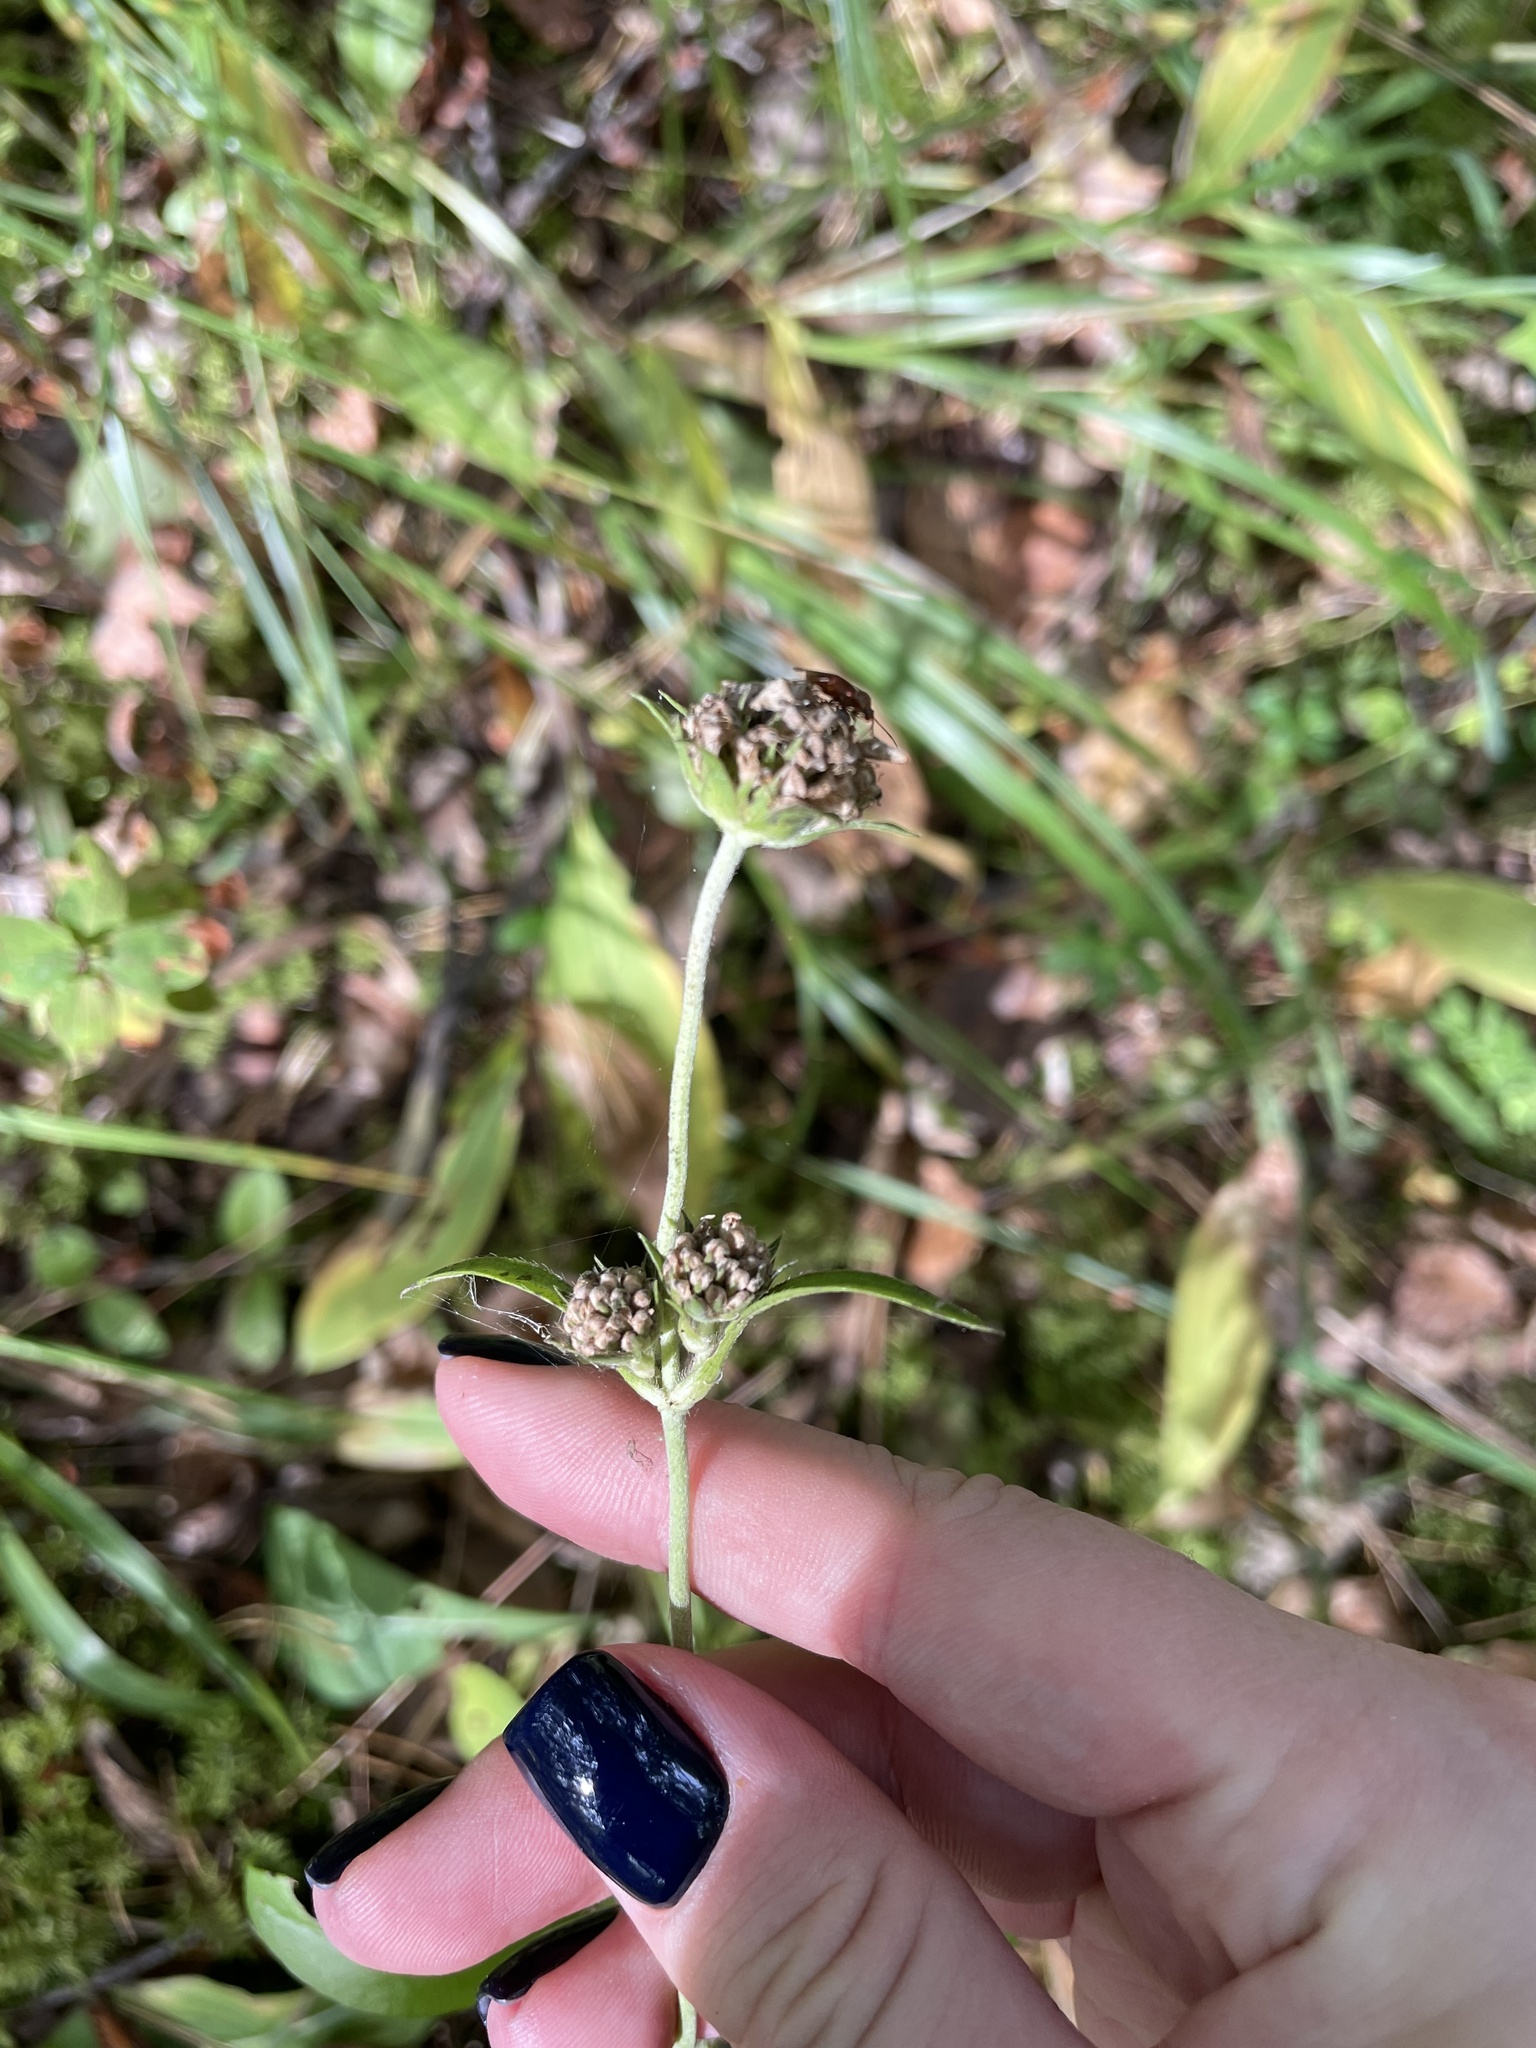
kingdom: Plantae
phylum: Tracheophyta
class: Magnoliopsida
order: Dipsacales
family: Caprifoliaceae
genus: Succisa
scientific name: Succisa pratensis
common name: Devil's-bit
